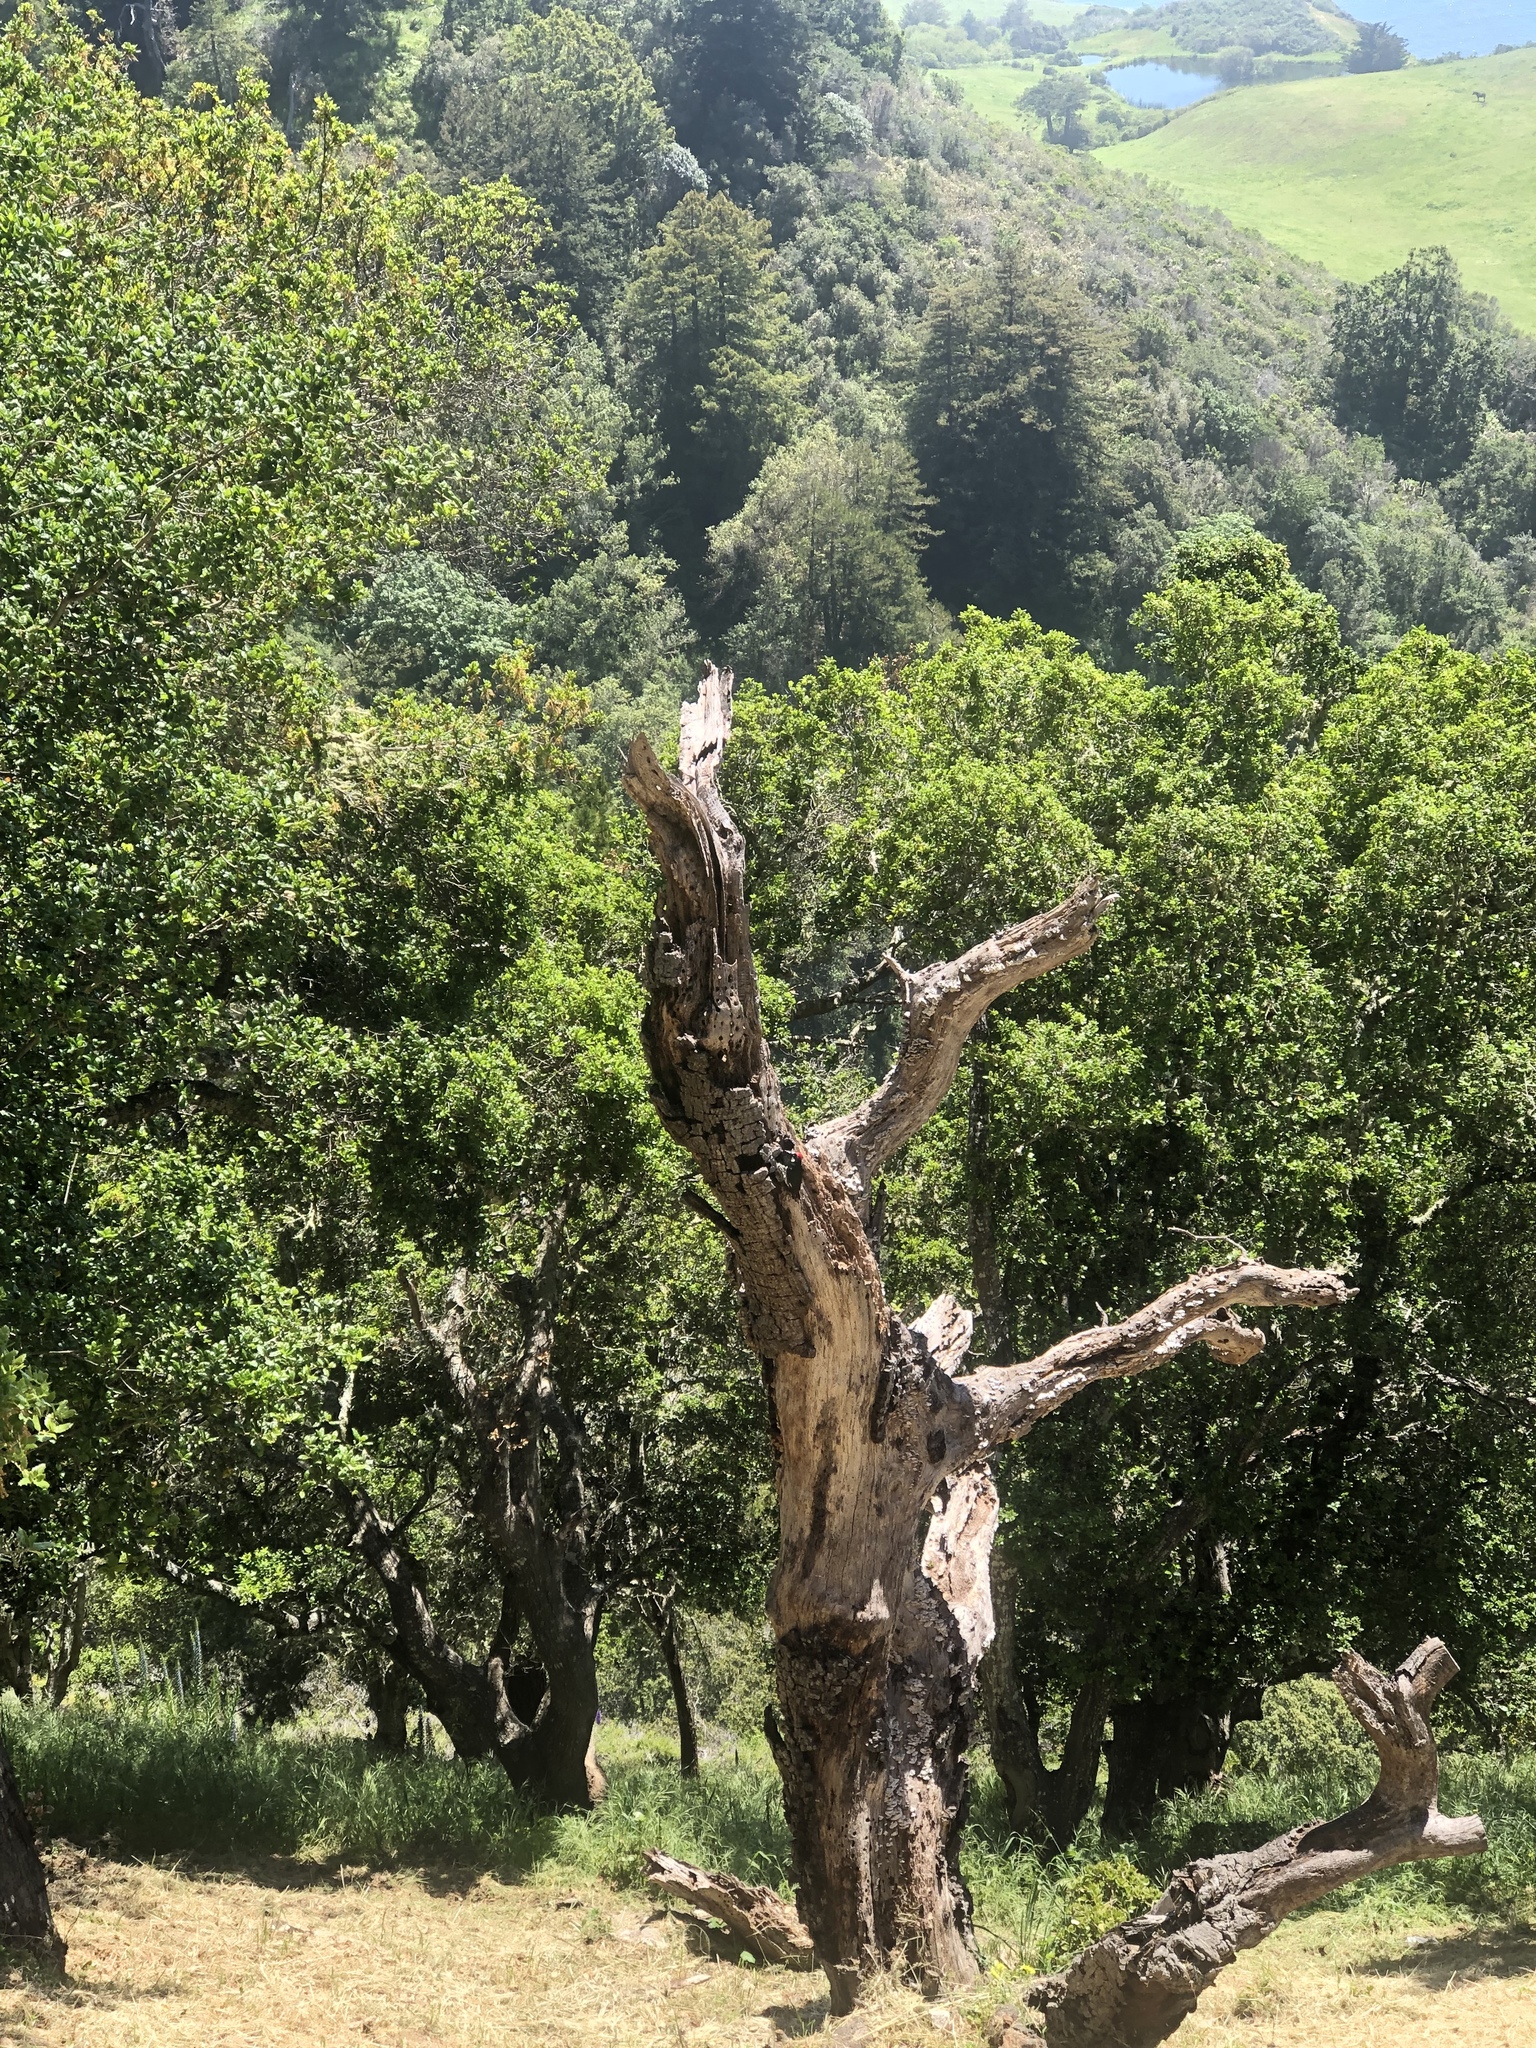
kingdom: Animalia
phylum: Chordata
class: Aves
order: Piciformes
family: Picidae
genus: Melanerpes
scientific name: Melanerpes formicivorus
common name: Acorn woodpecker
